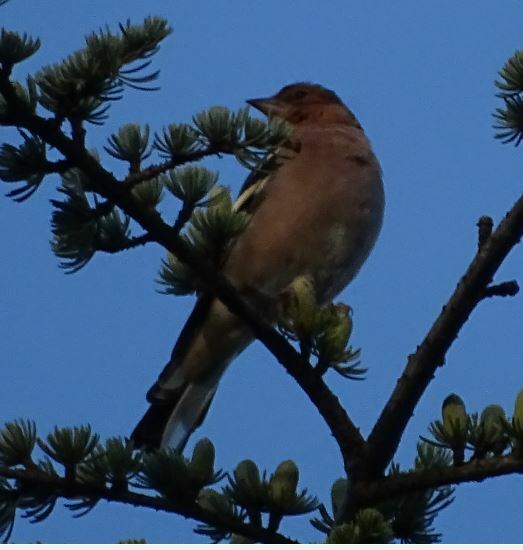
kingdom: Animalia
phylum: Chordata
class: Aves
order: Passeriformes
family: Fringillidae
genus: Fringilla
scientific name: Fringilla coelebs
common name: Common chaffinch
